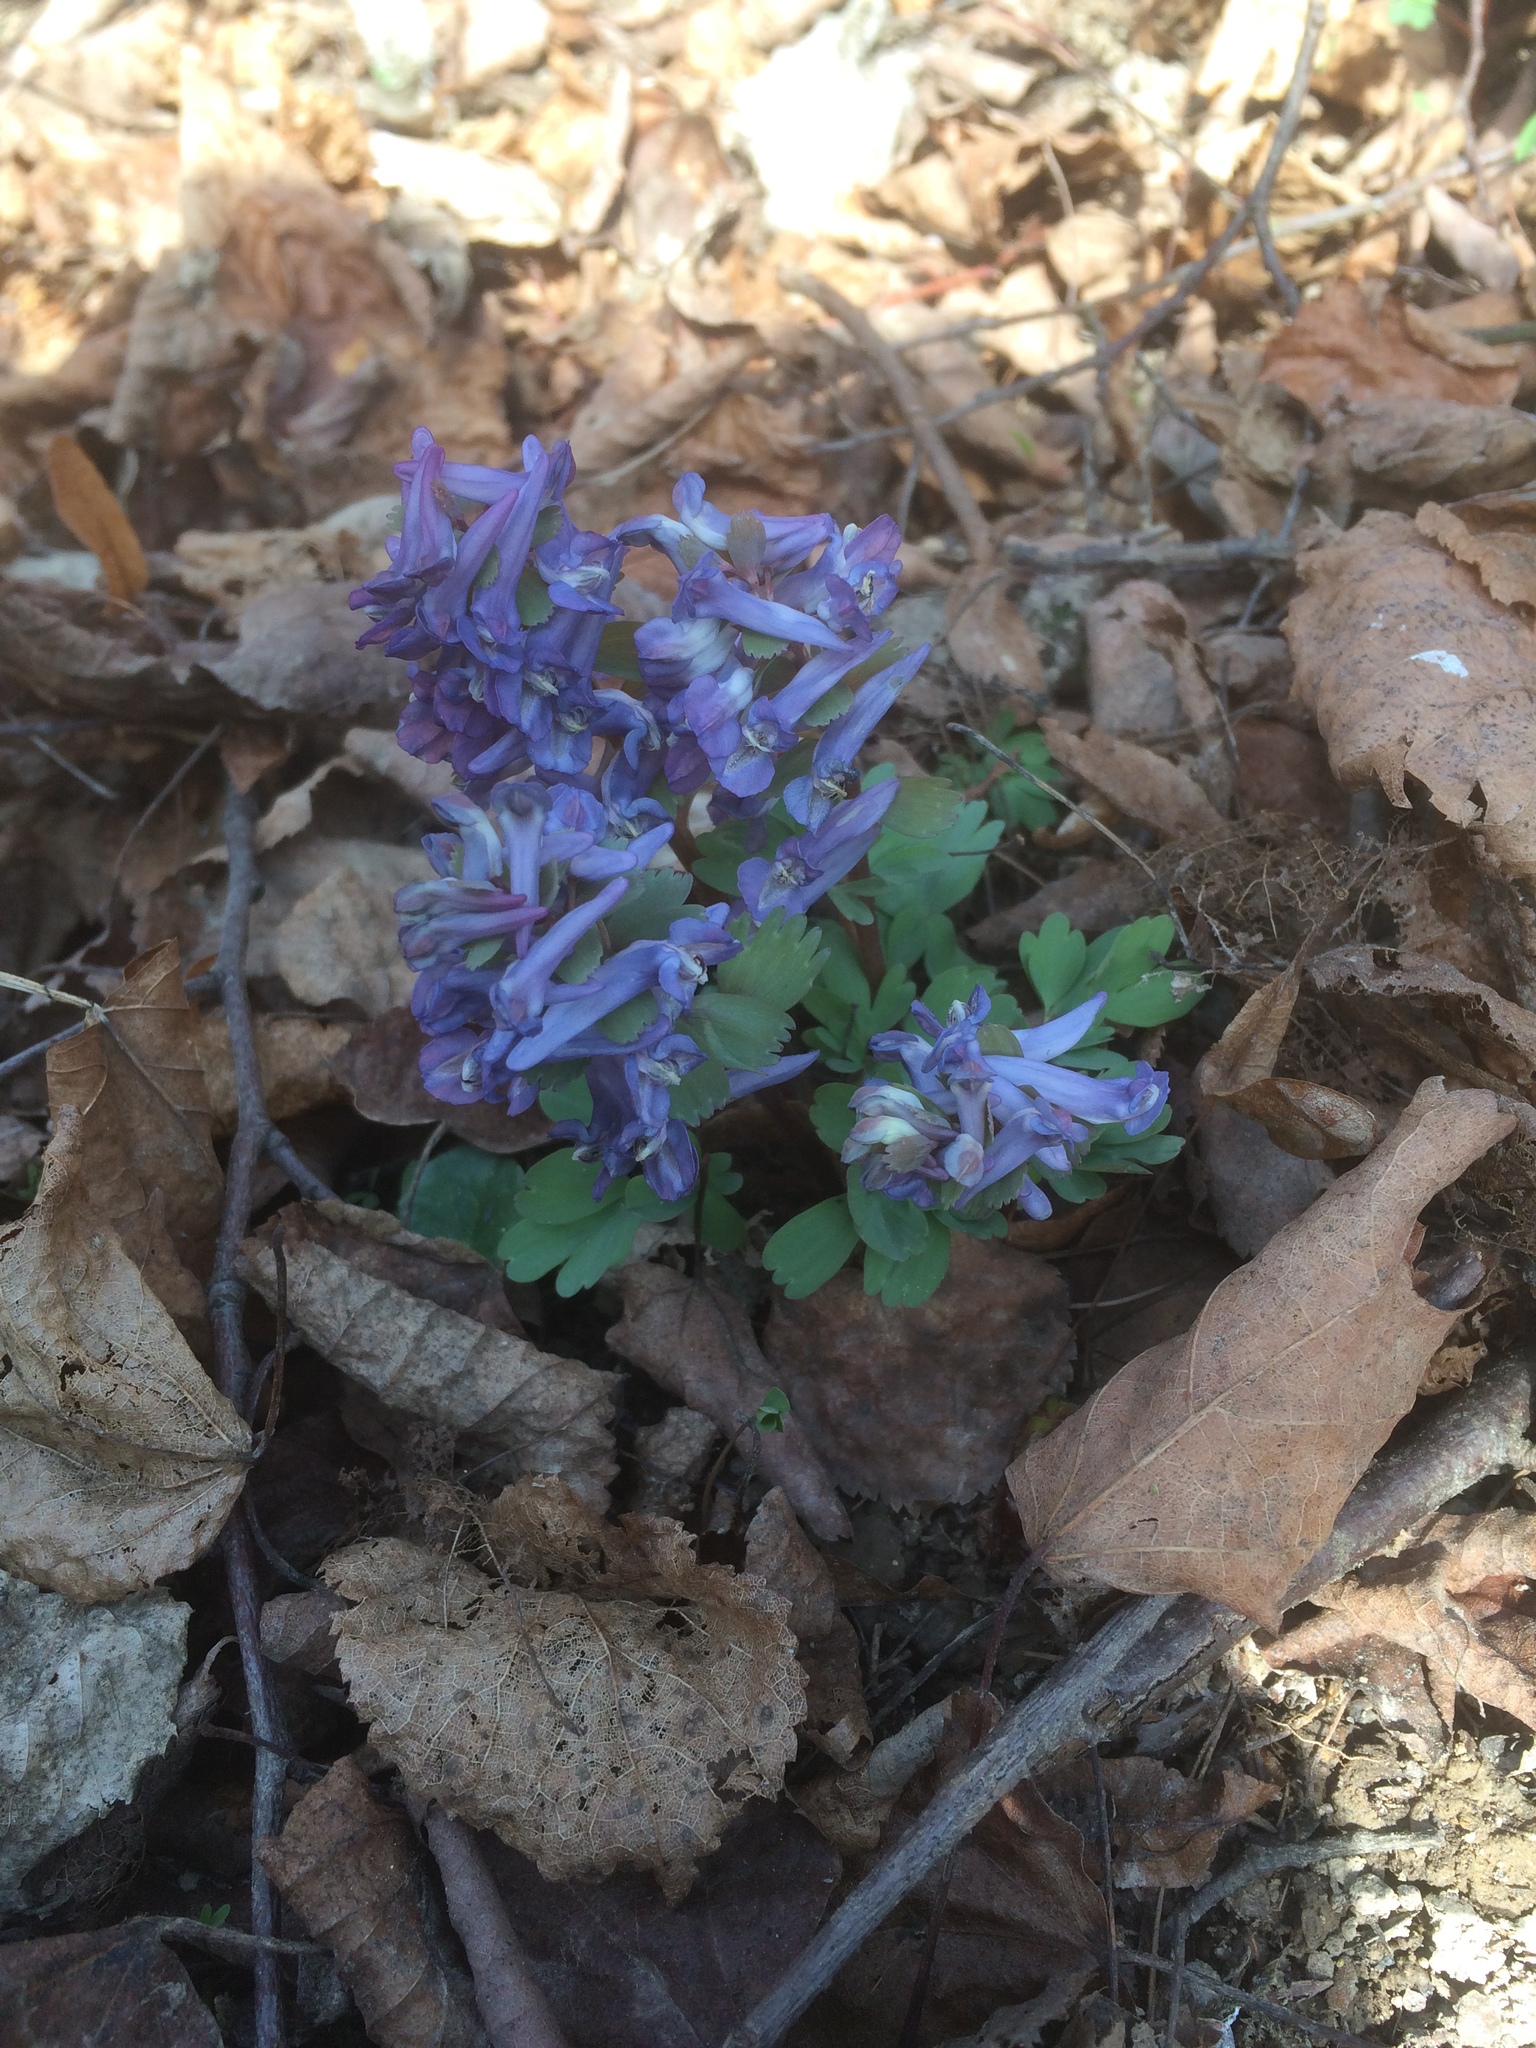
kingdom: Plantae
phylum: Tracheophyta
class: Magnoliopsida
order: Ranunculales
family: Papaveraceae
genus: Corydalis
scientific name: Corydalis solida
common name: Bird-in-a-bush
